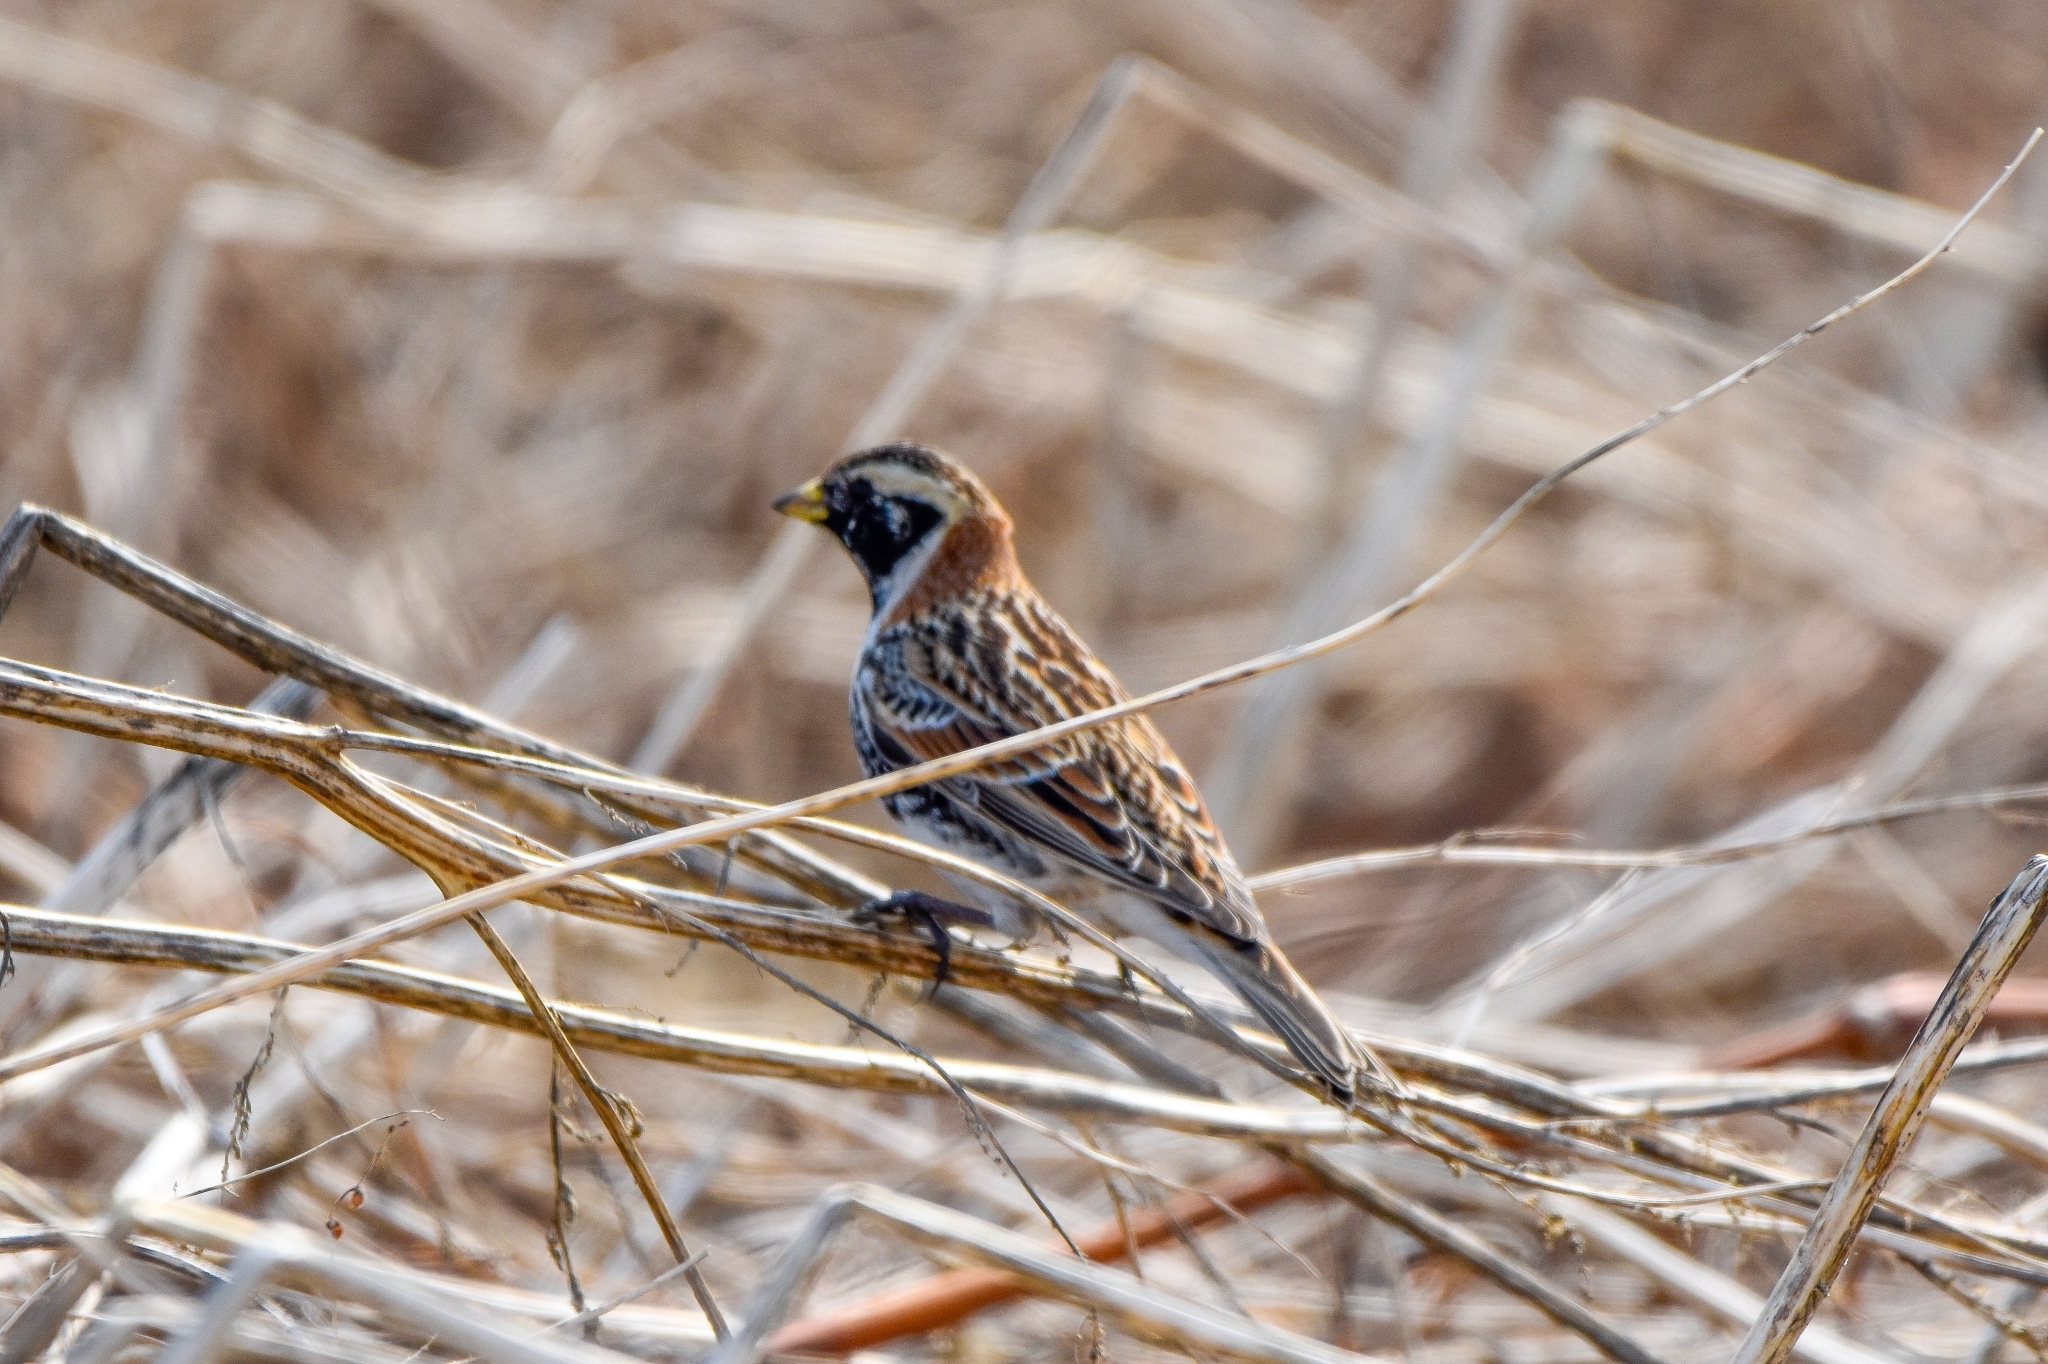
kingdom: Animalia
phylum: Chordata
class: Aves
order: Passeriformes
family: Calcariidae
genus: Calcarius
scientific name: Calcarius lapponicus
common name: Lapland longspur
